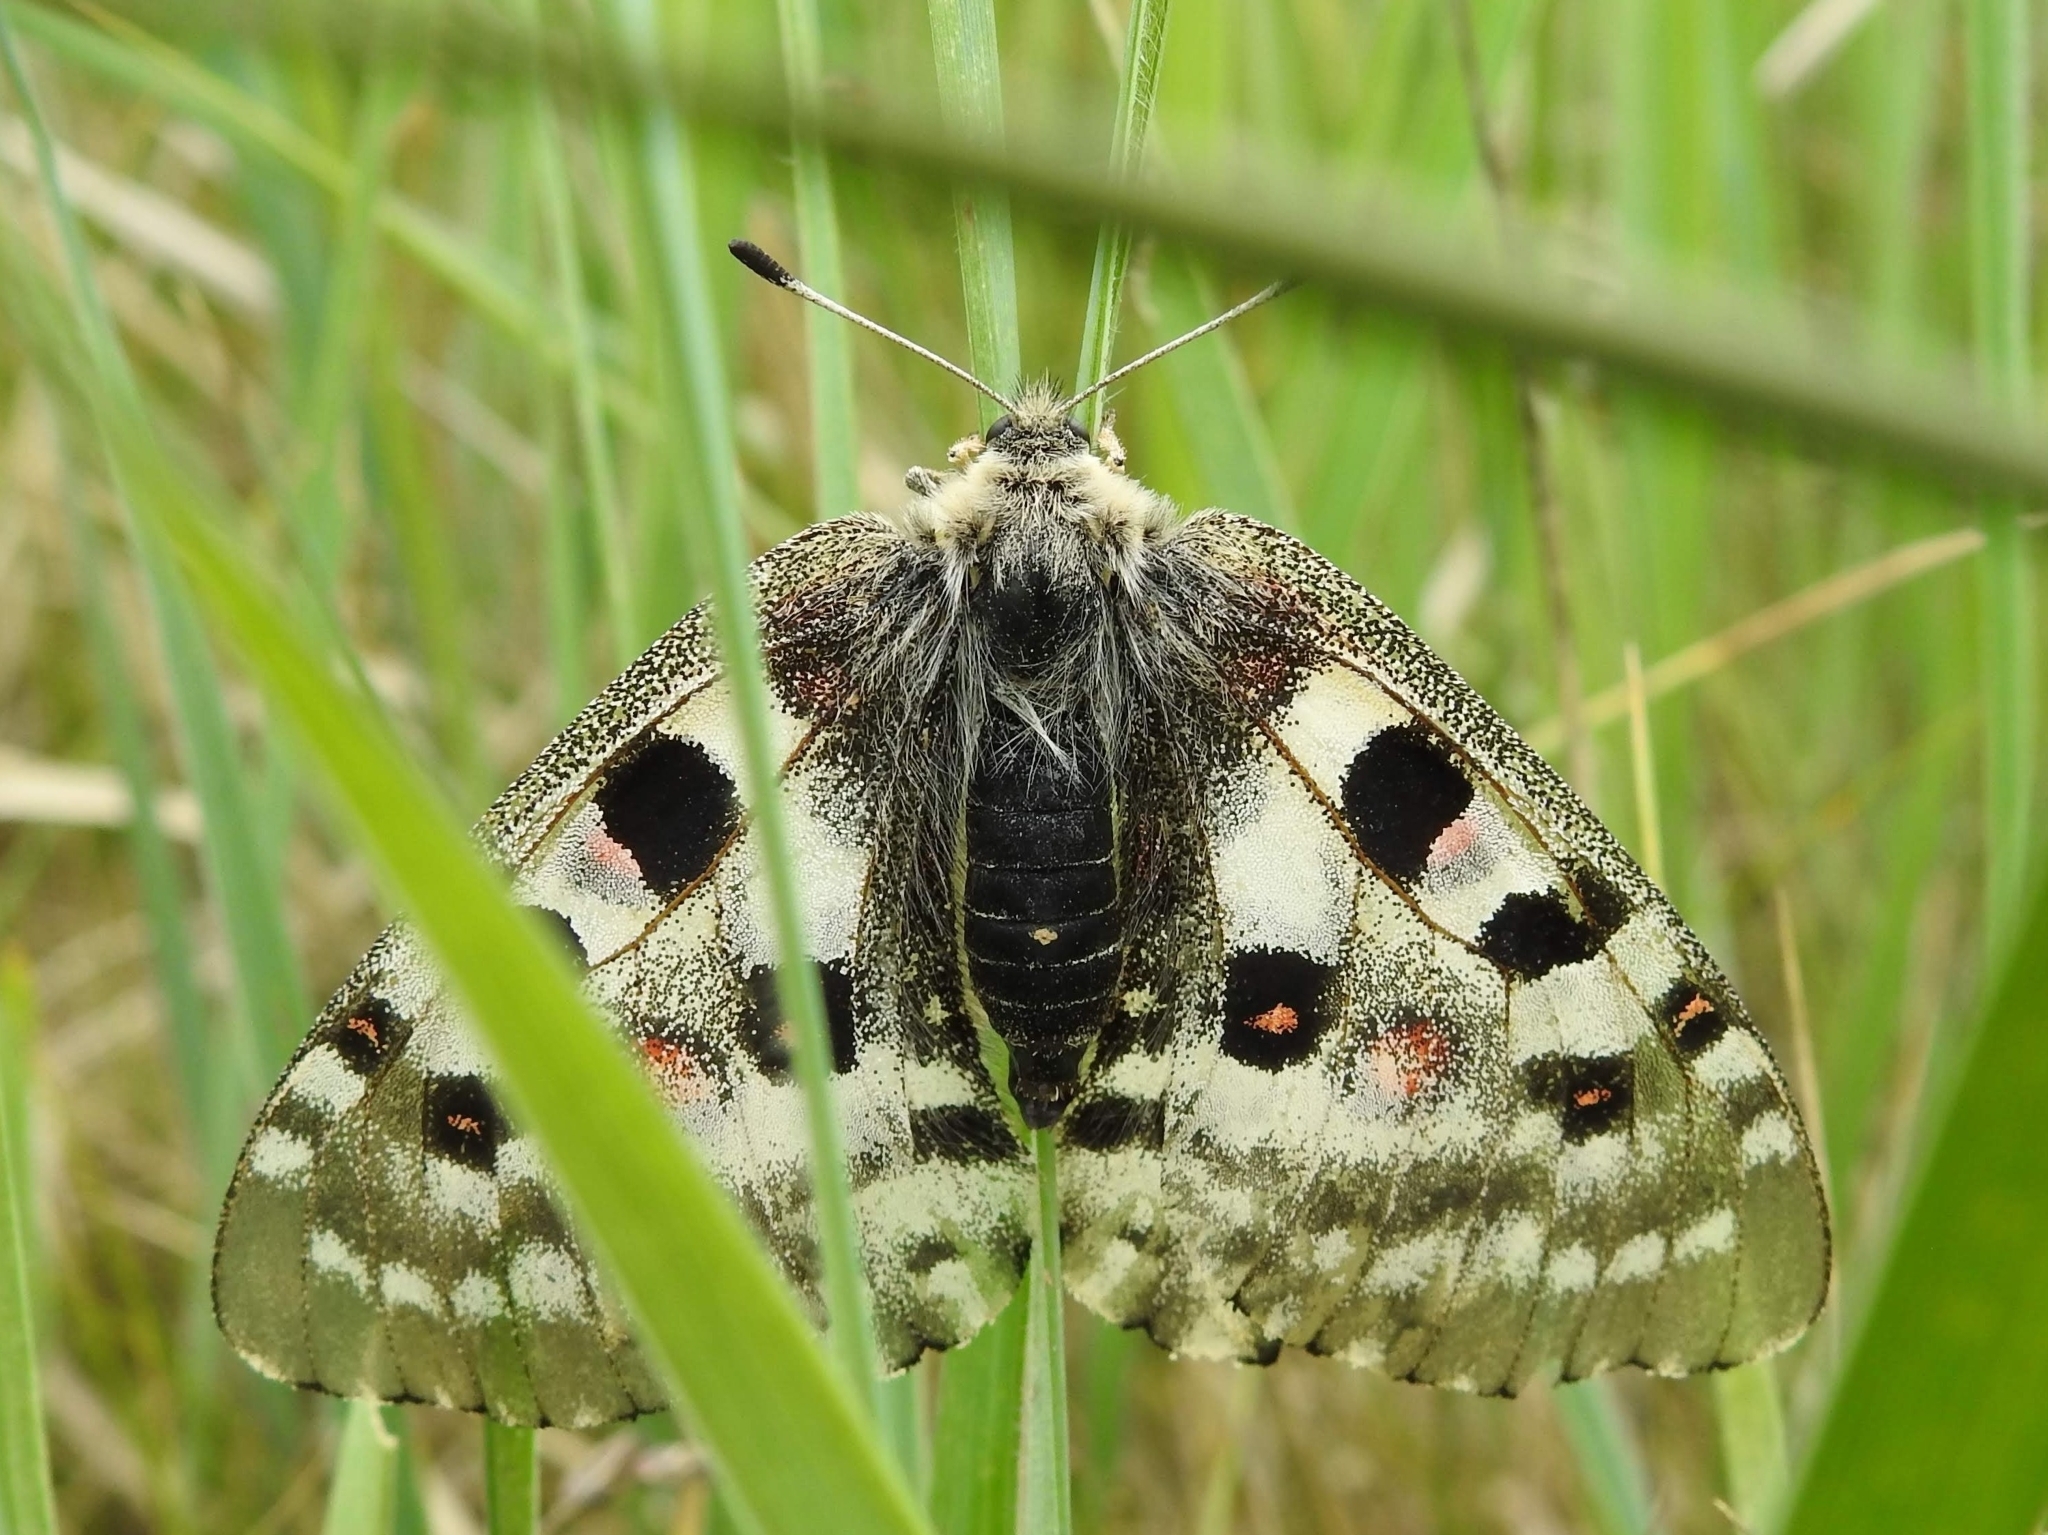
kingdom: Animalia
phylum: Arthropoda
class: Insecta
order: Lepidoptera
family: Papilionidae
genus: Parnassius
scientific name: Parnassius nomion
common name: Nomion apollo
